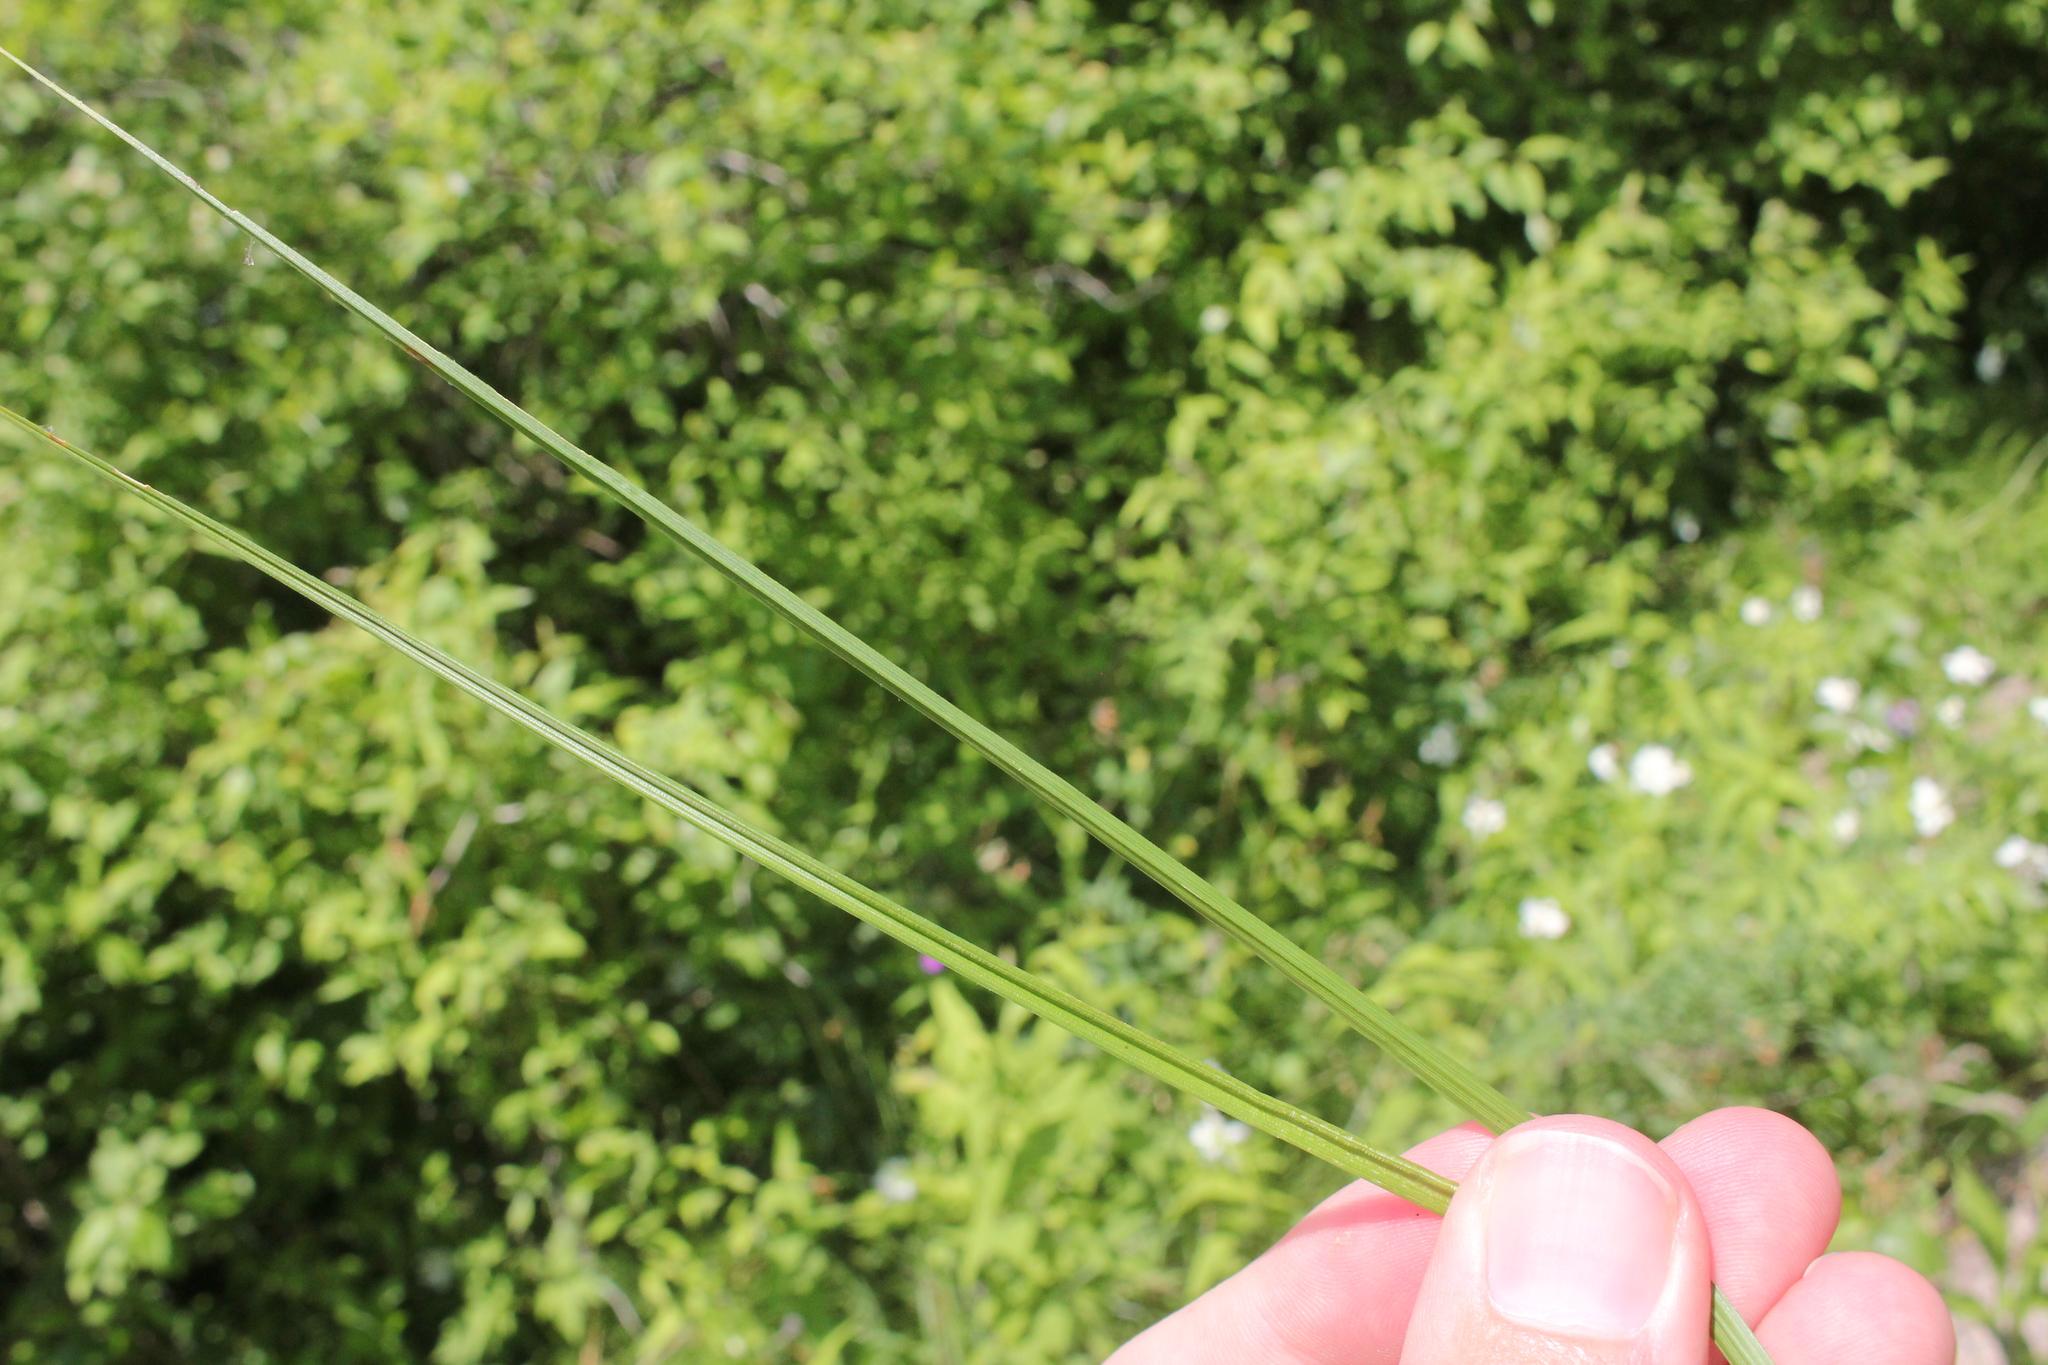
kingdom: Plantae
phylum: Tracheophyta
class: Liliopsida
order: Poales
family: Cyperaceae
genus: Carex
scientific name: Carex normalis
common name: Greater straw sedge
